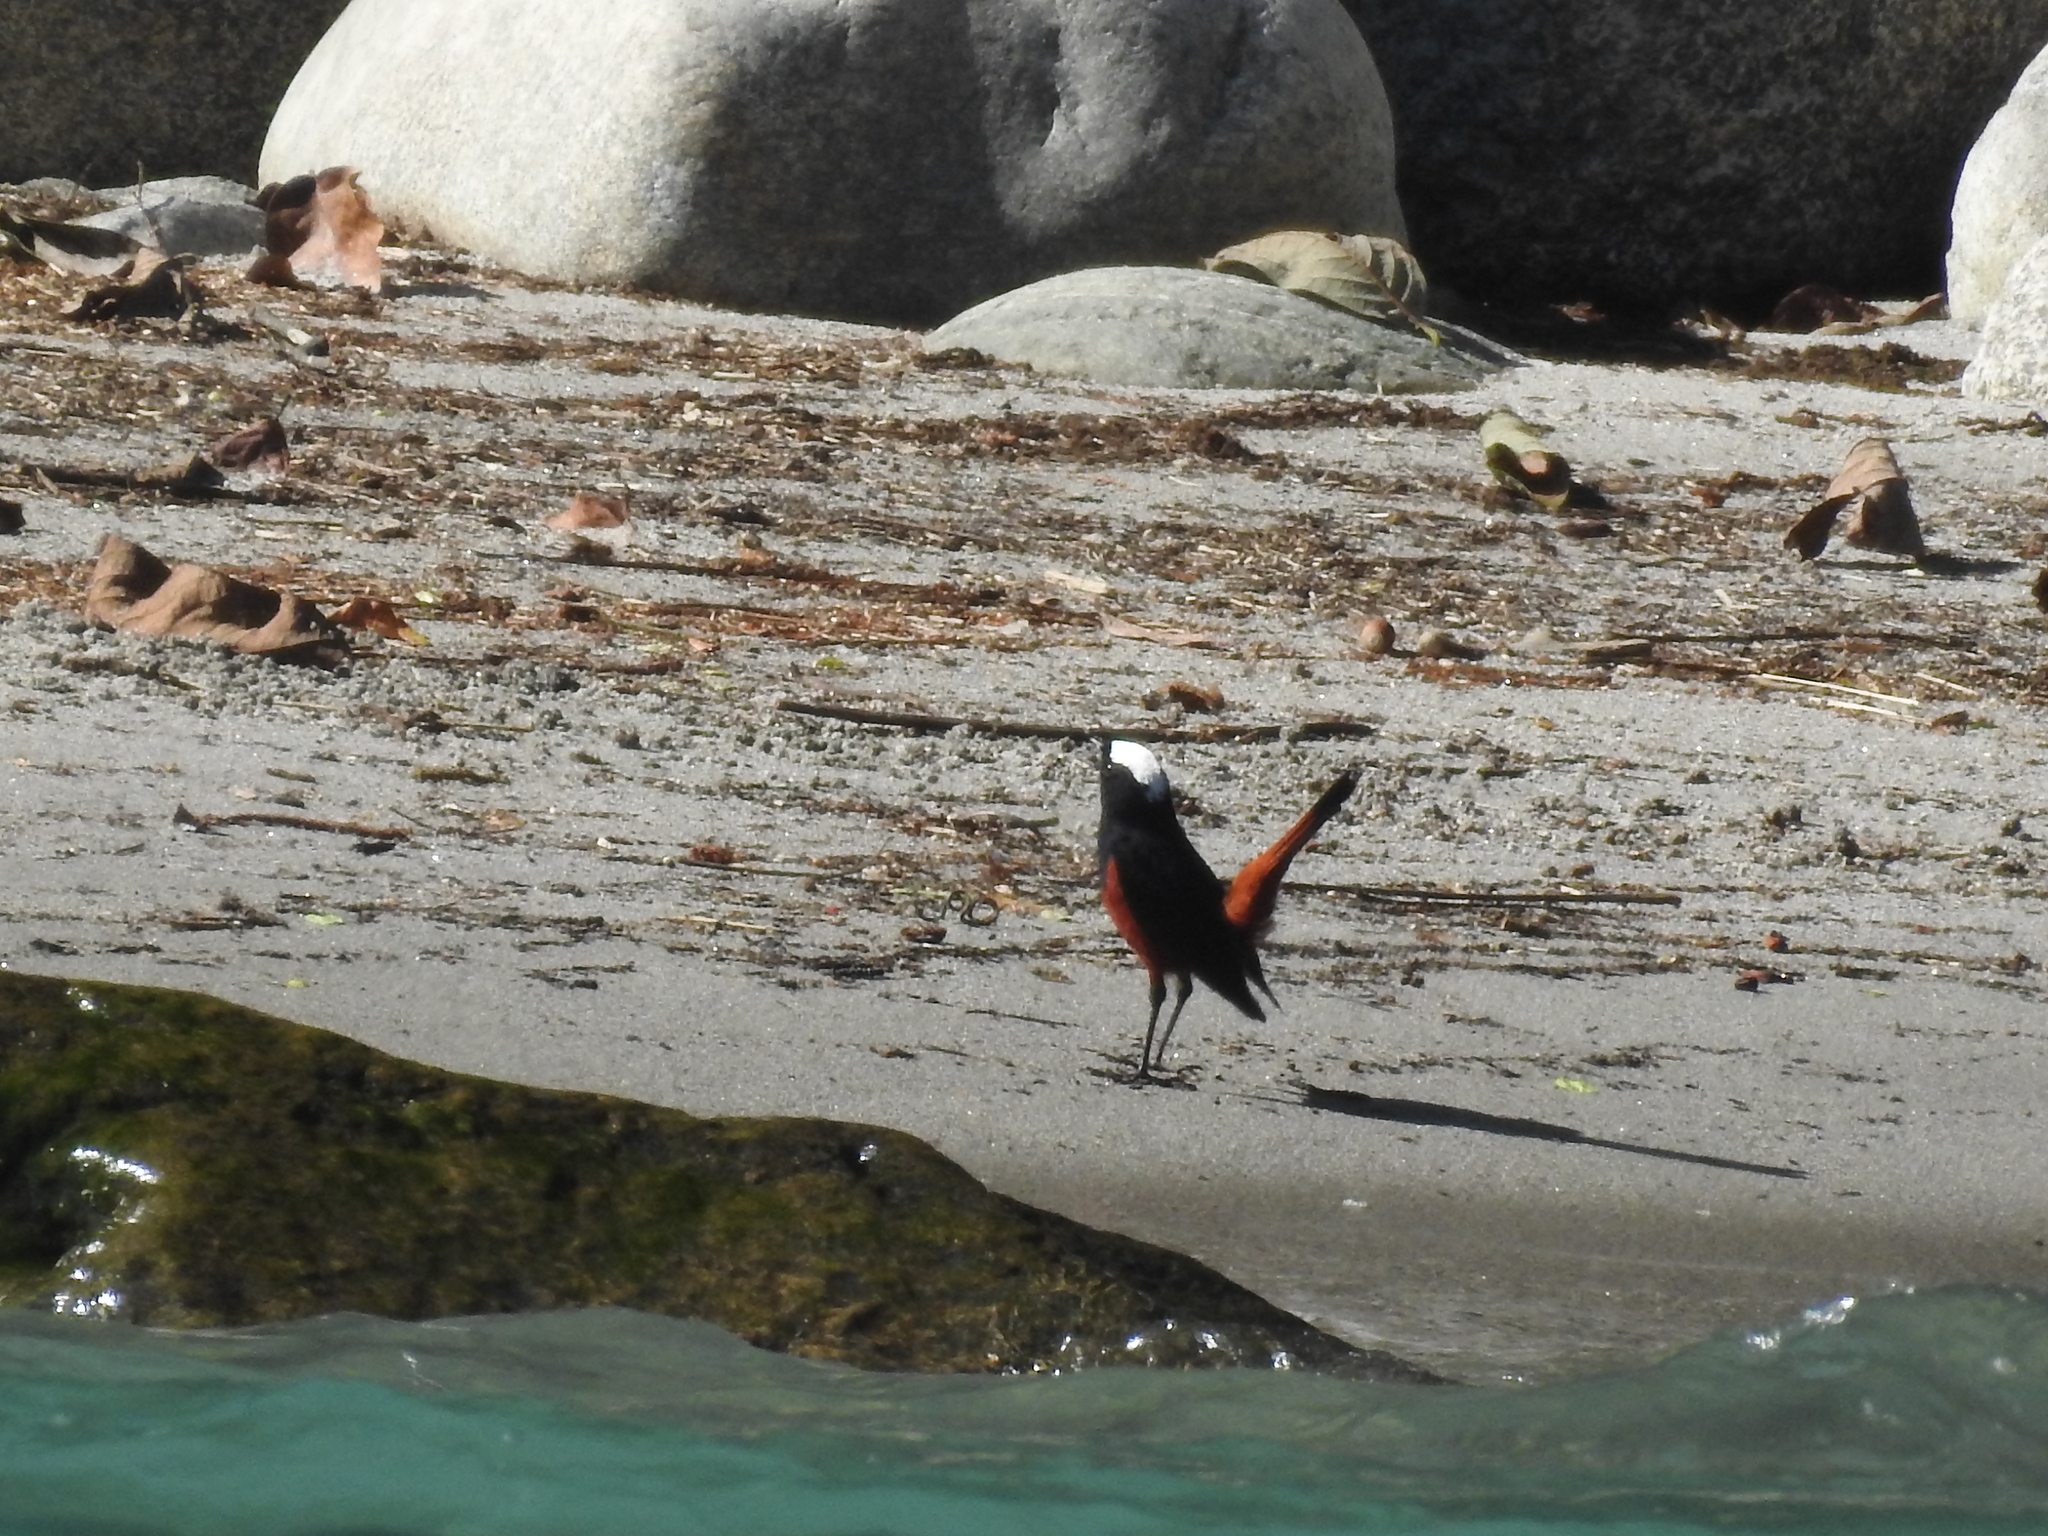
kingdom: Animalia
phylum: Chordata
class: Aves
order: Passeriformes
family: Muscicapidae
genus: Chaimarrornis
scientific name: Chaimarrornis leucocephalus
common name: White-capped redstart
